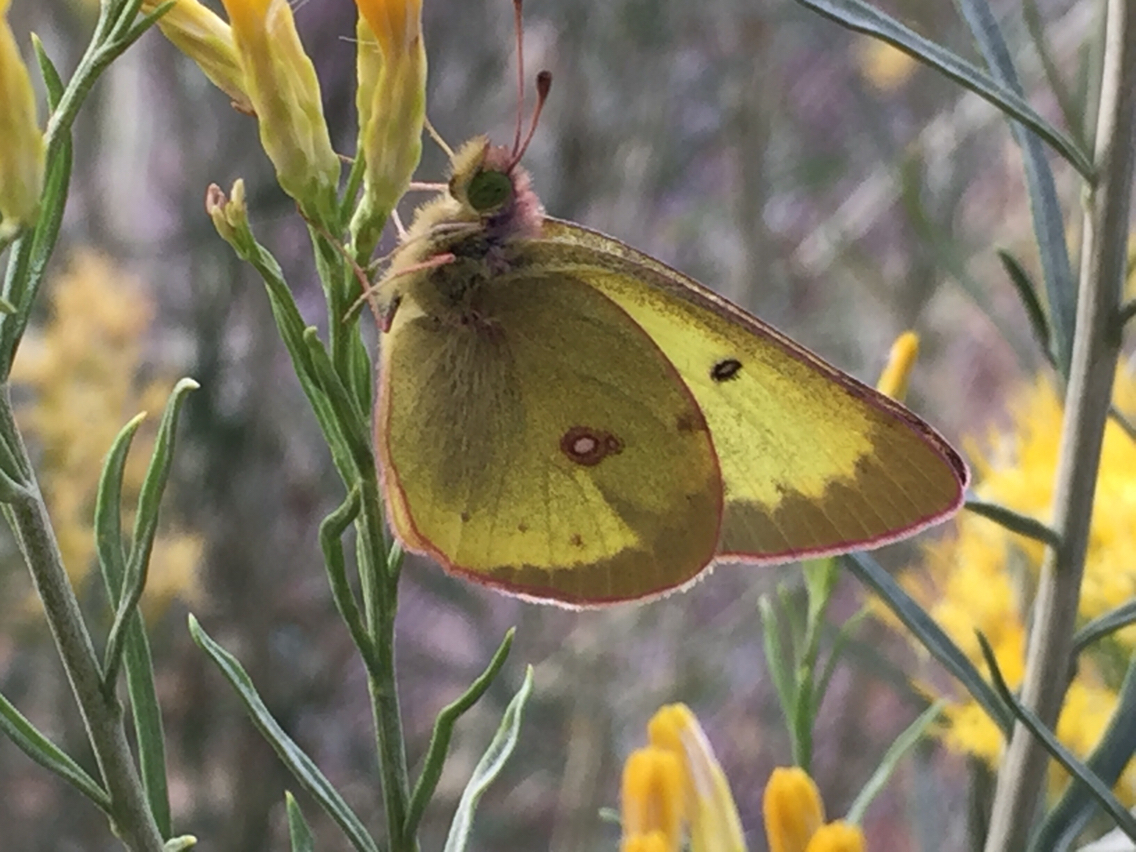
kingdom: Animalia
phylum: Arthropoda
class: Insecta
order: Lepidoptera
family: Pieridae
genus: Colias
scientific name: Colias philodice
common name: Clouded sulphur
